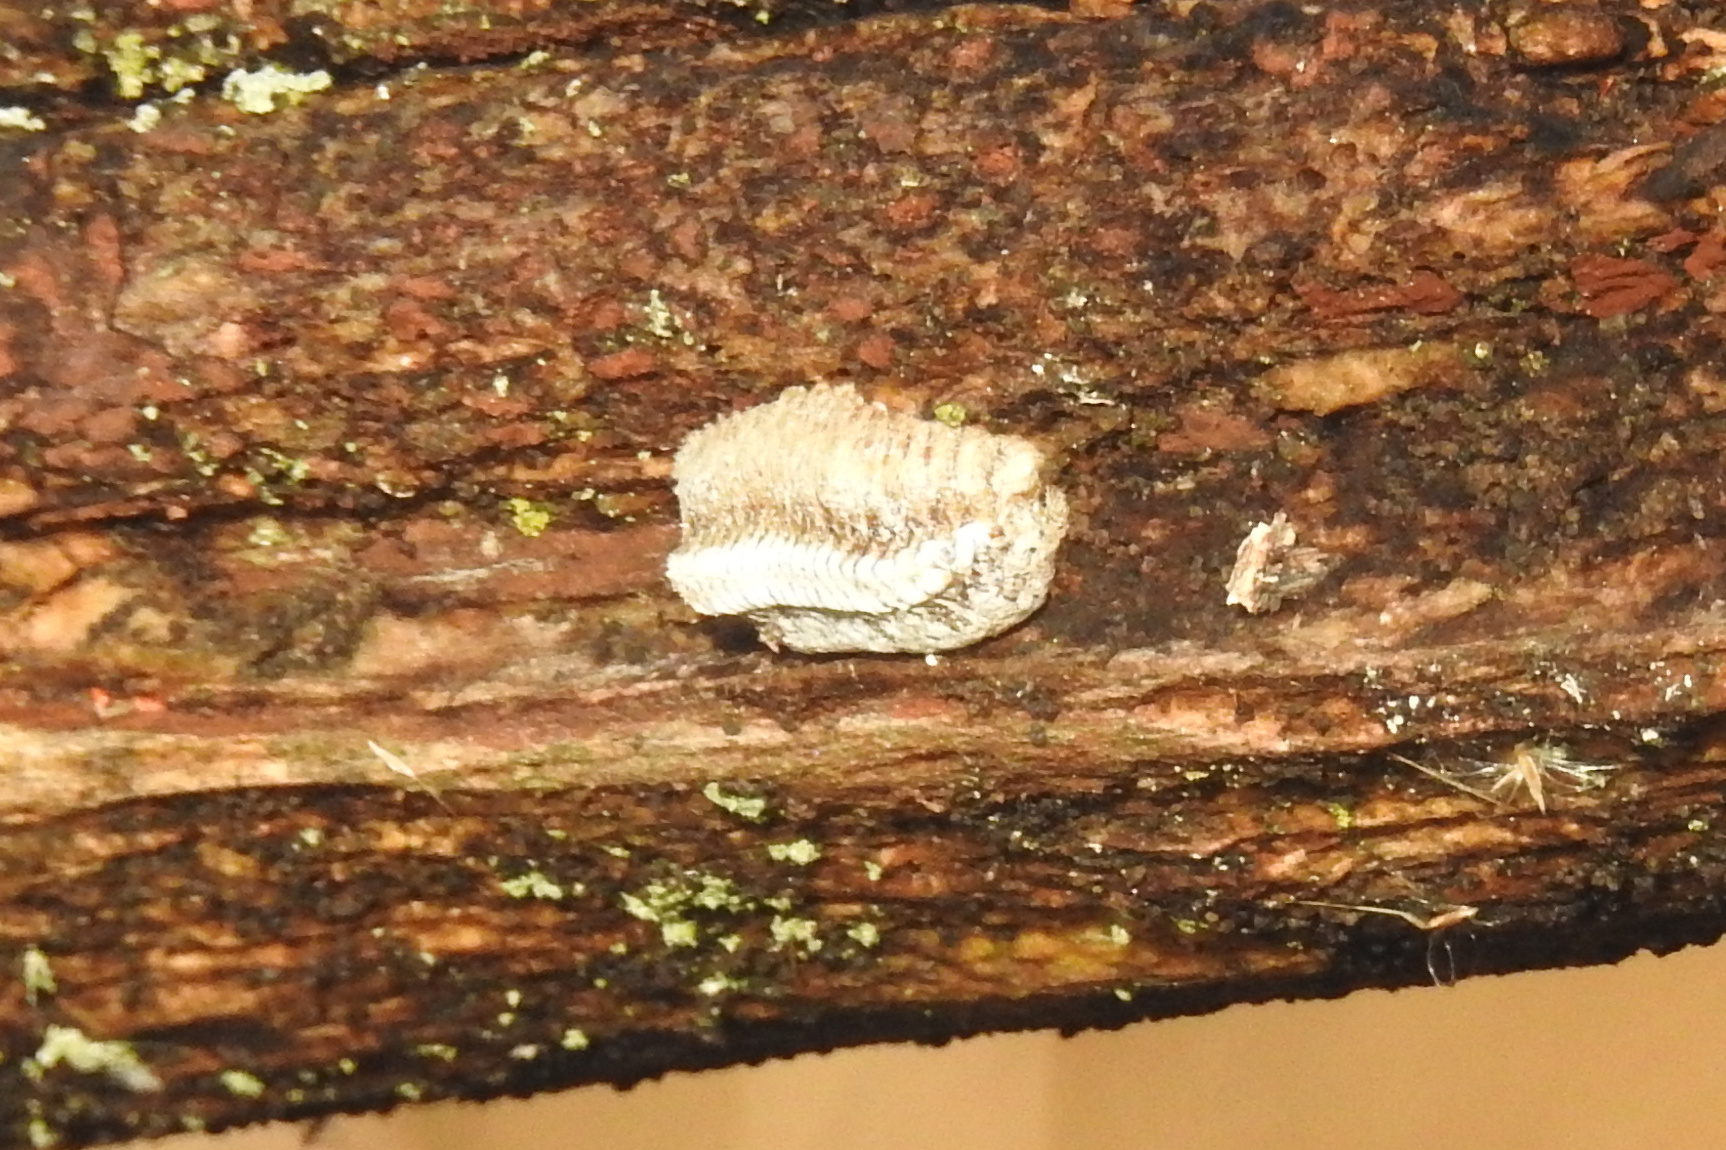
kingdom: Animalia
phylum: Arthropoda
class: Insecta
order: Mantodea
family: Mantidae
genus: Stagmomantis
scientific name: Stagmomantis carolina
